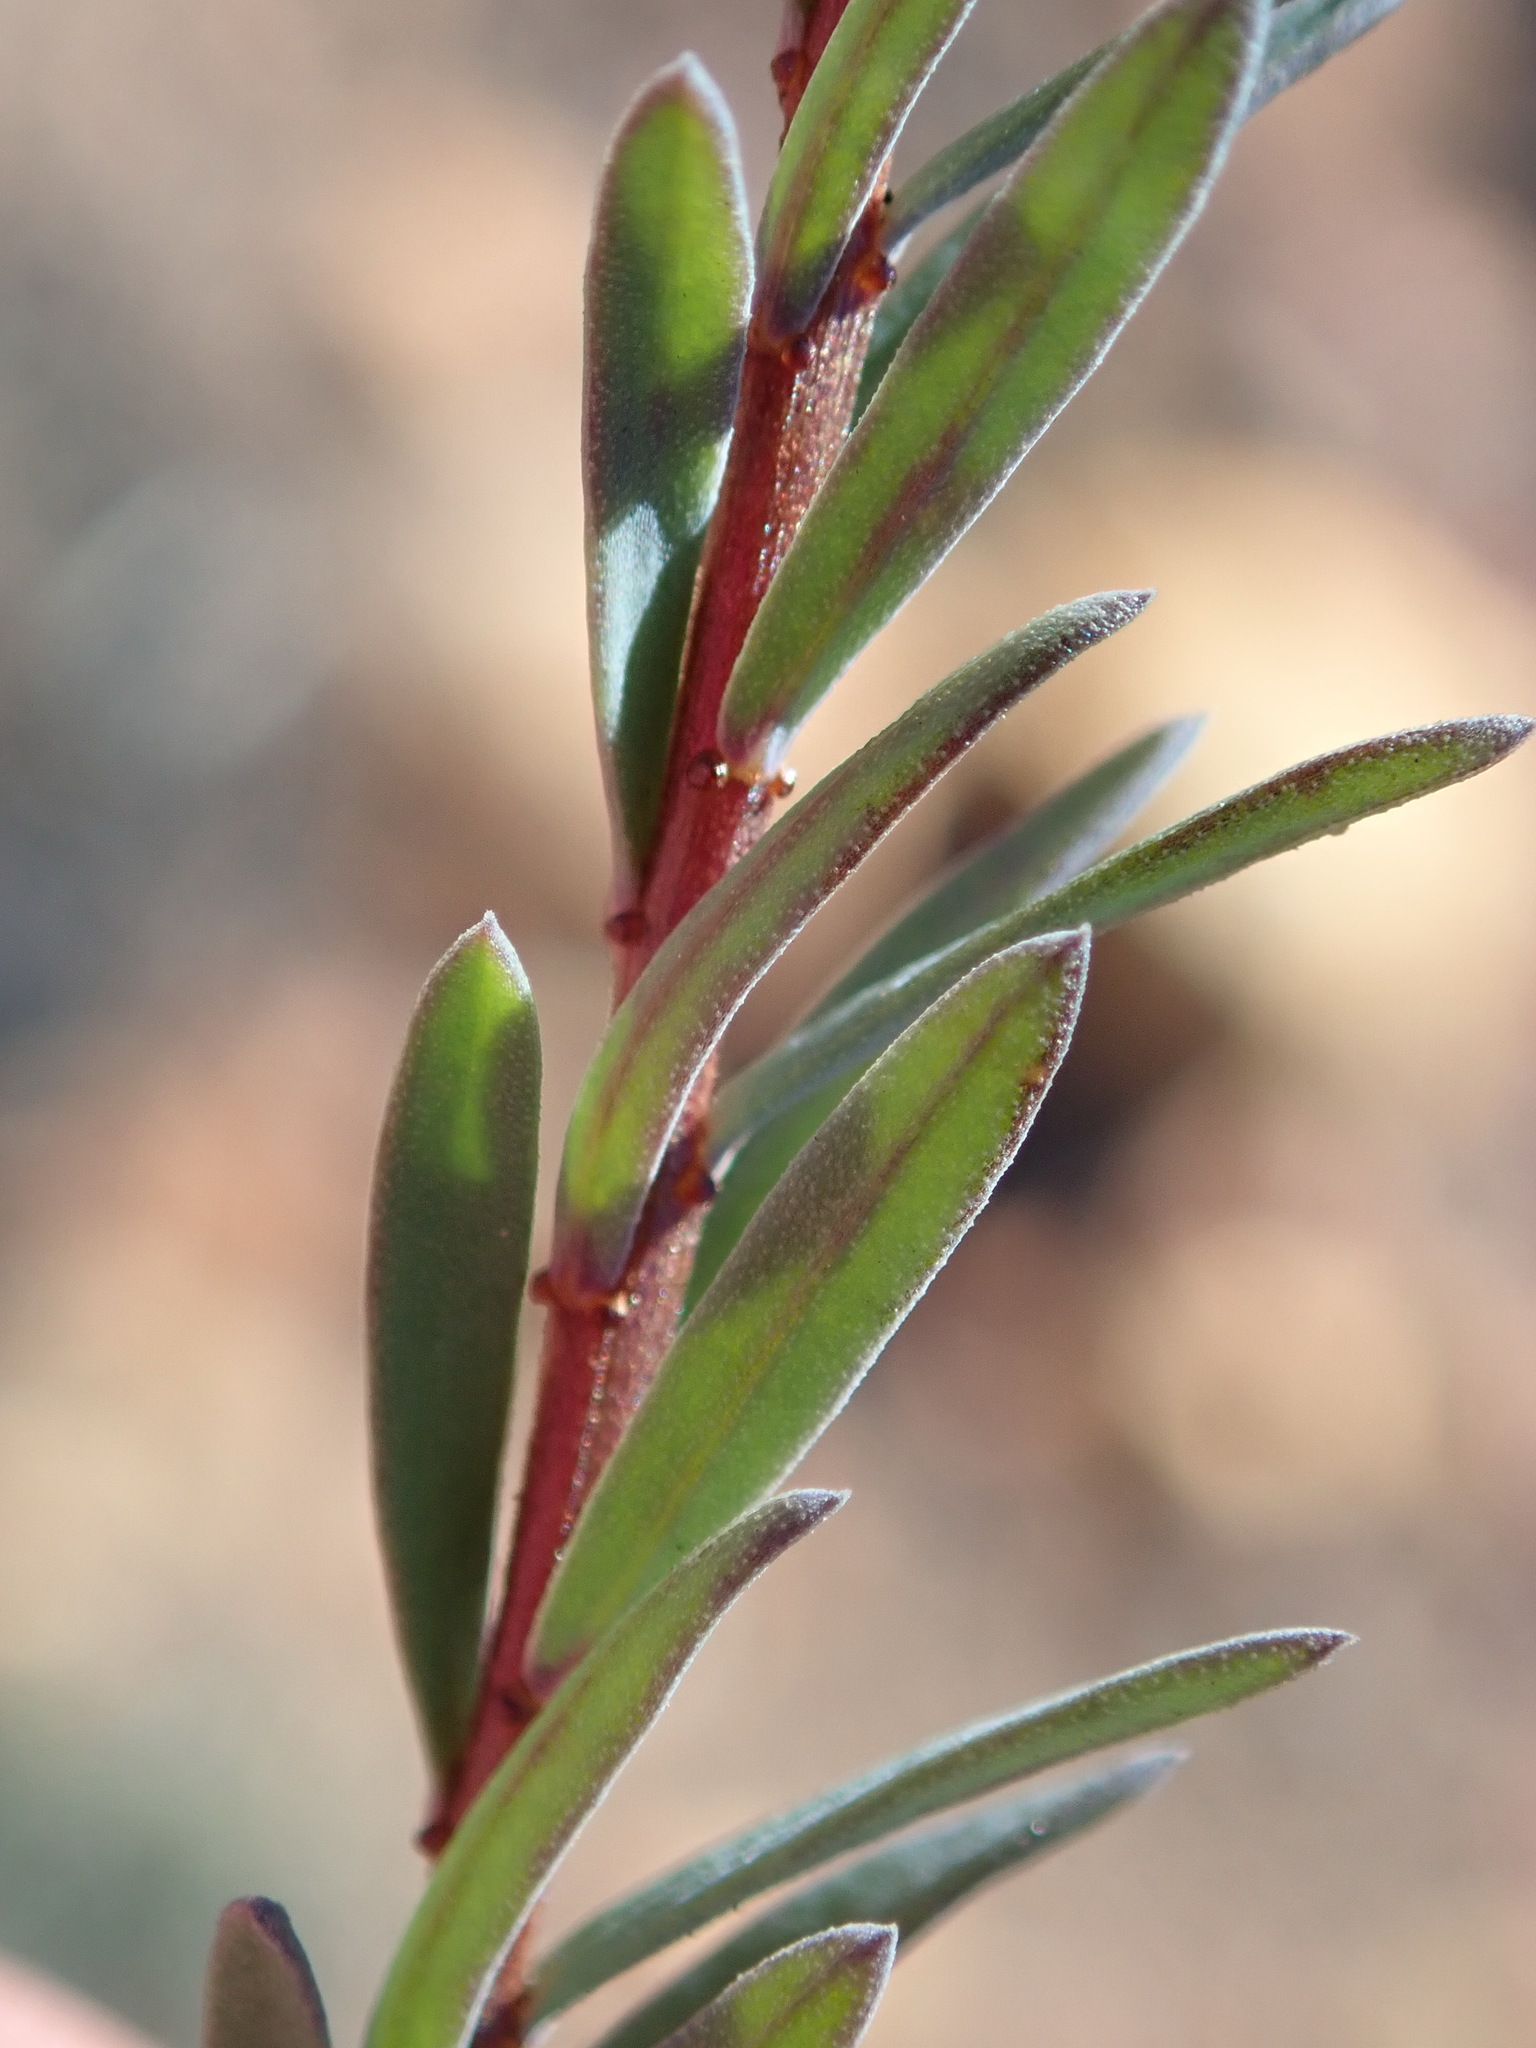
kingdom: Plantae
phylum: Tracheophyta
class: Magnoliopsida
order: Malpighiales
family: Linaceae
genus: Linum
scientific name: Linum heterostylum
